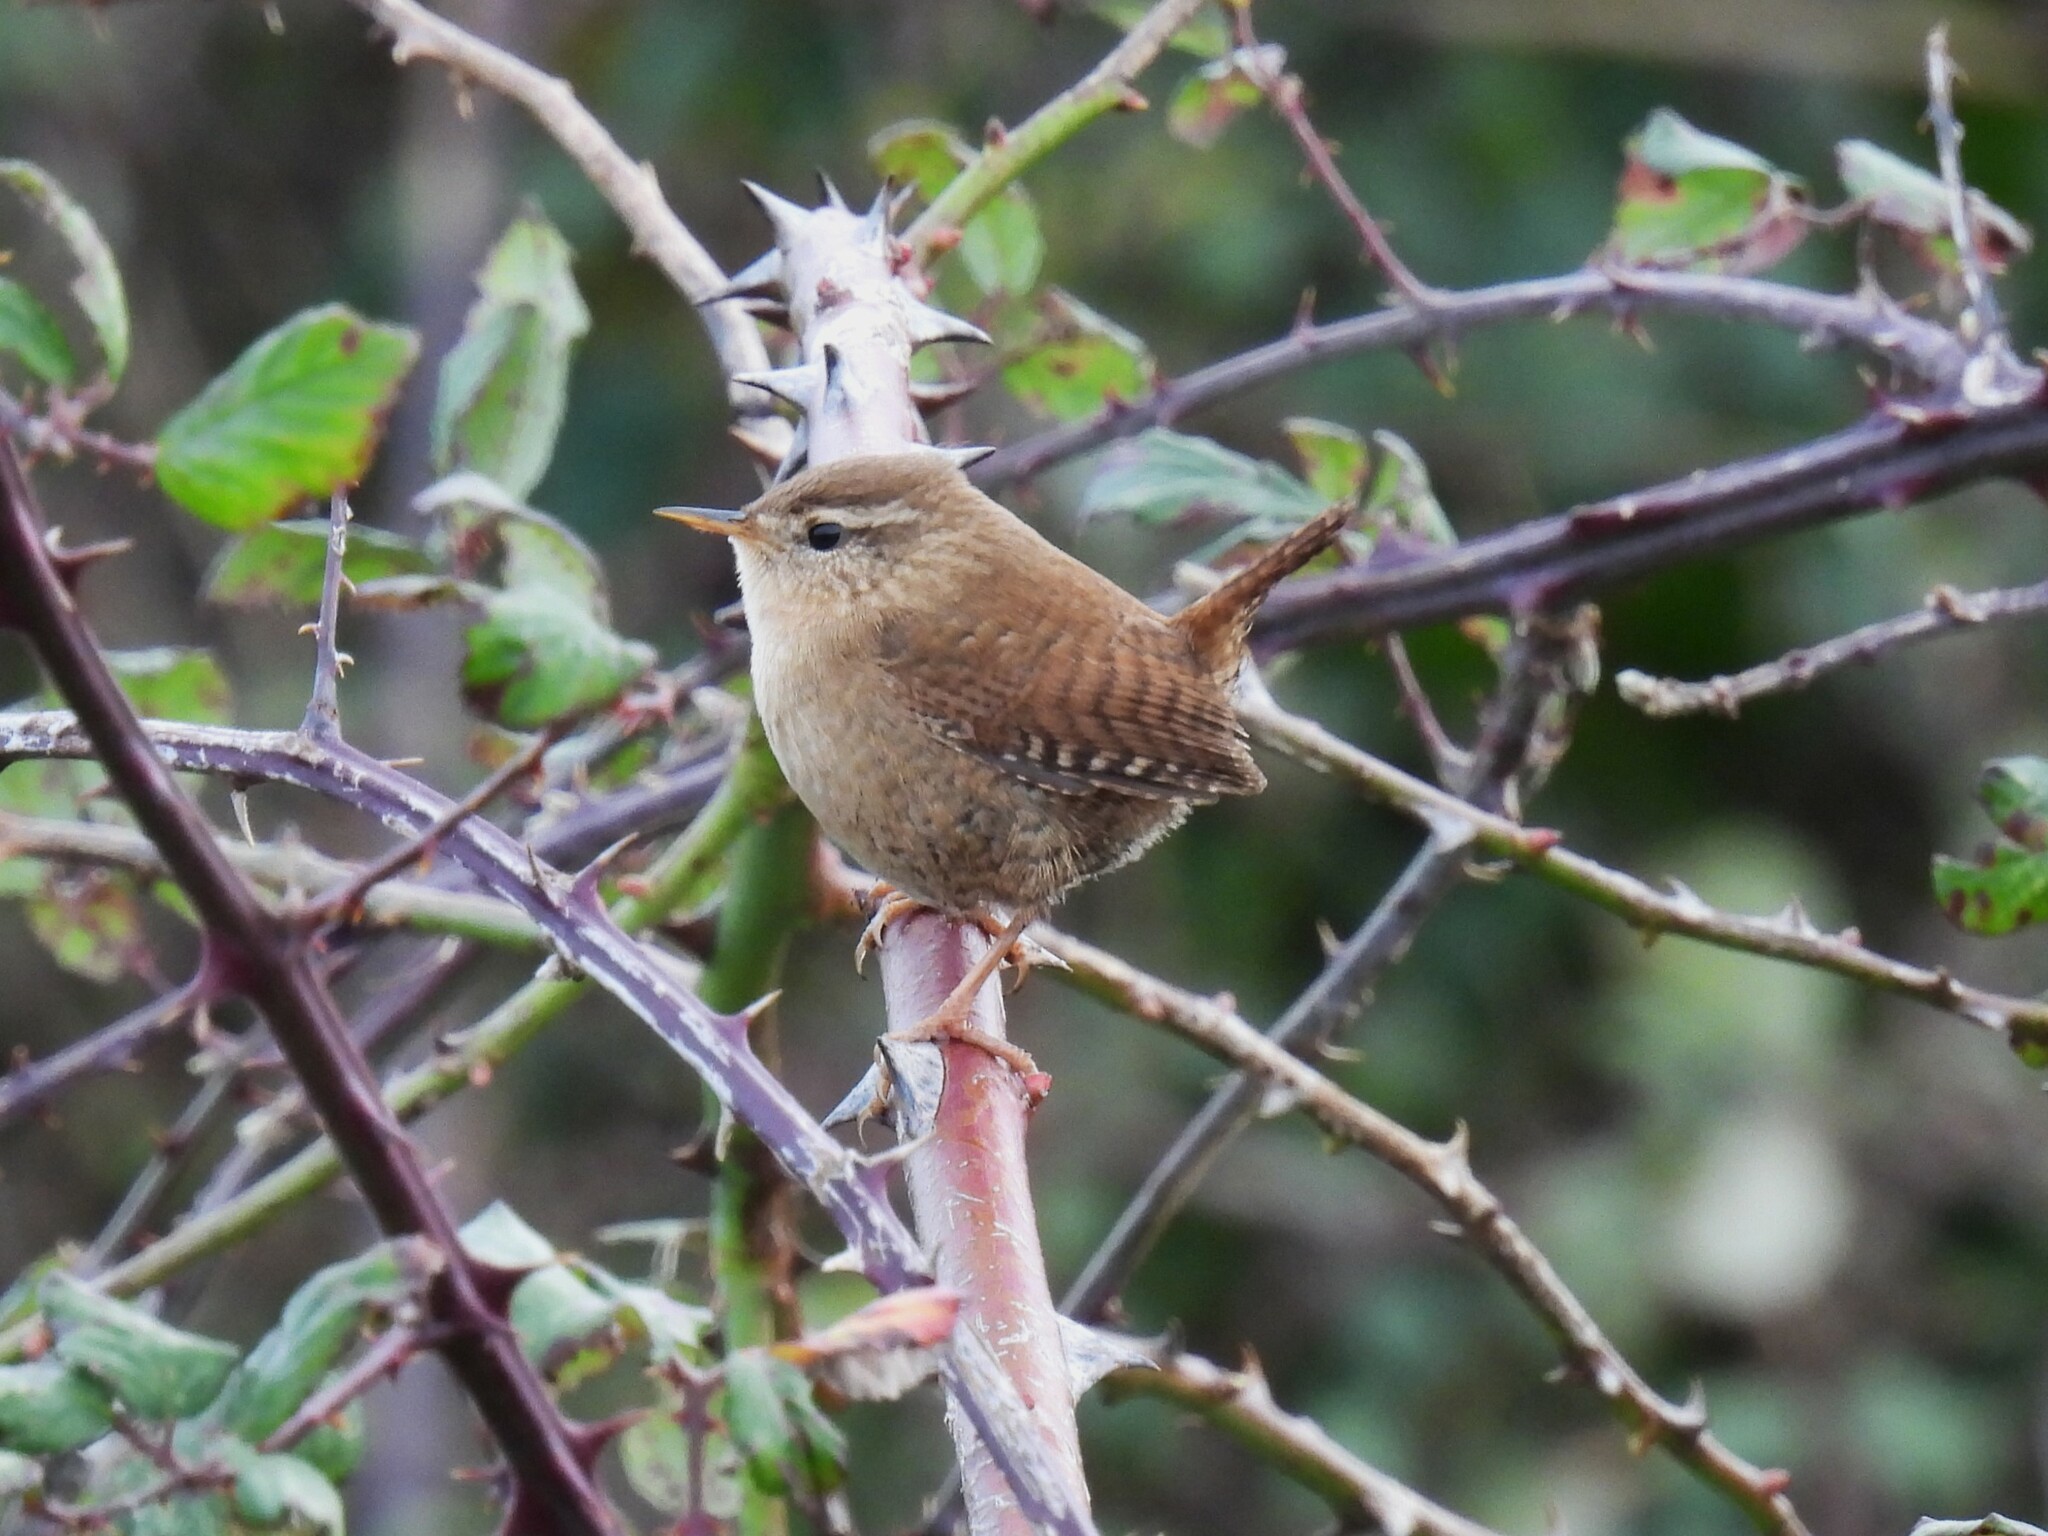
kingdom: Animalia
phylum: Chordata
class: Aves
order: Passeriformes
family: Troglodytidae
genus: Troglodytes
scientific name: Troglodytes troglodytes
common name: Eurasian wren
